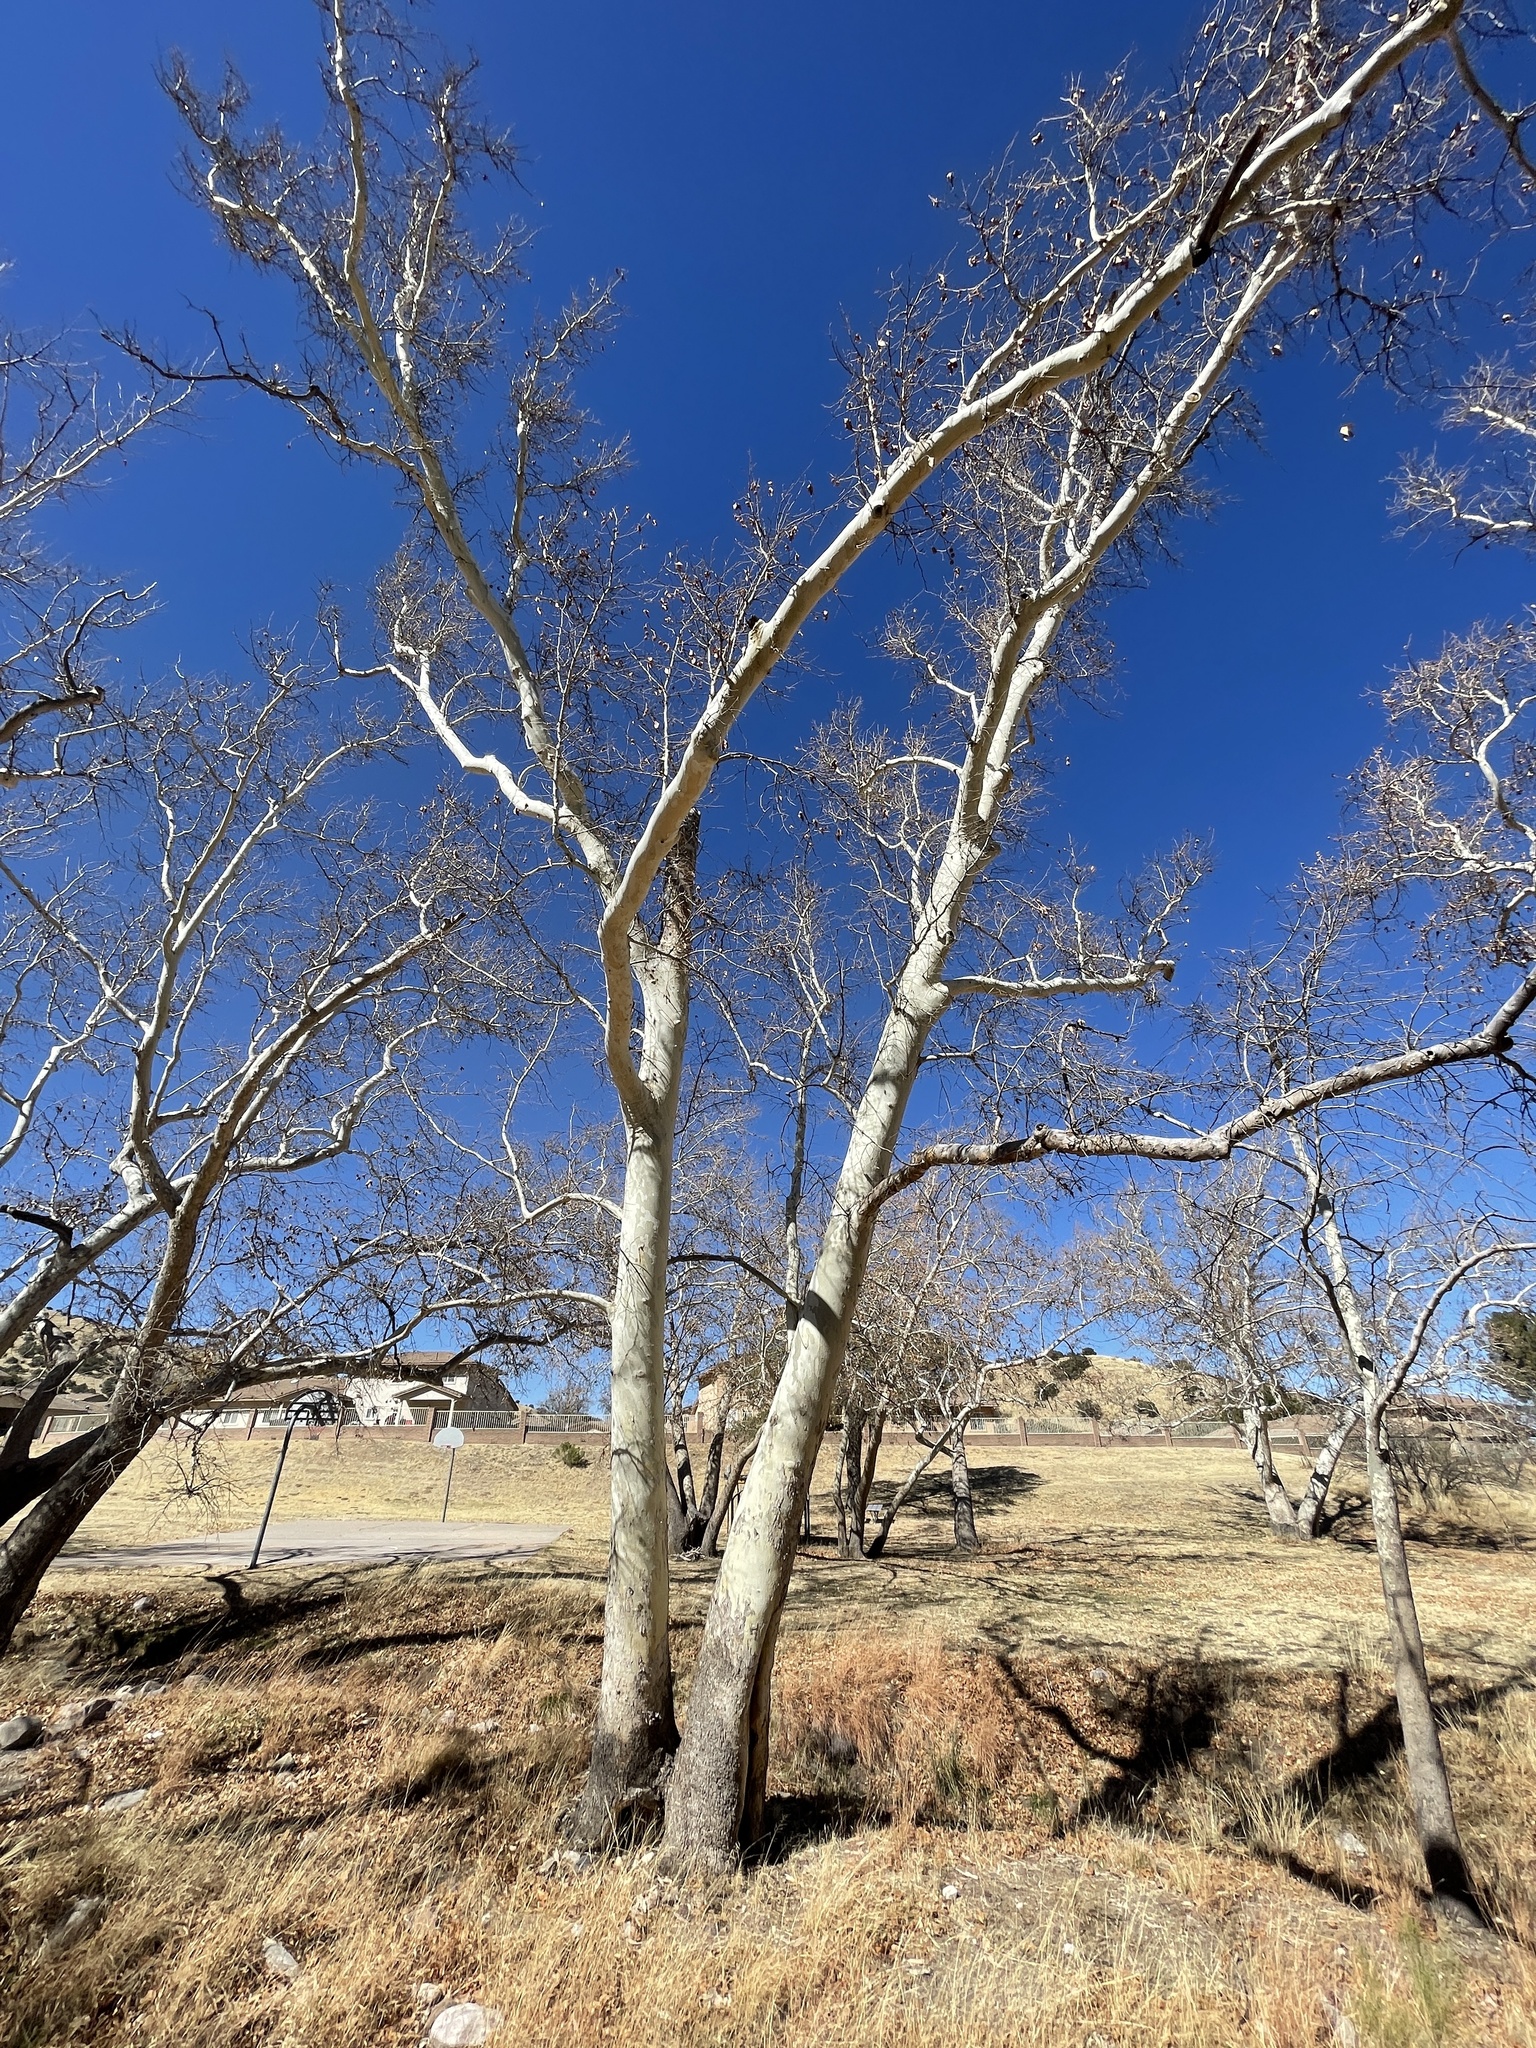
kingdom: Plantae
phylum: Tracheophyta
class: Magnoliopsida
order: Proteales
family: Platanaceae
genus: Platanus
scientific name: Platanus wrightii
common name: Arizona sycamore
